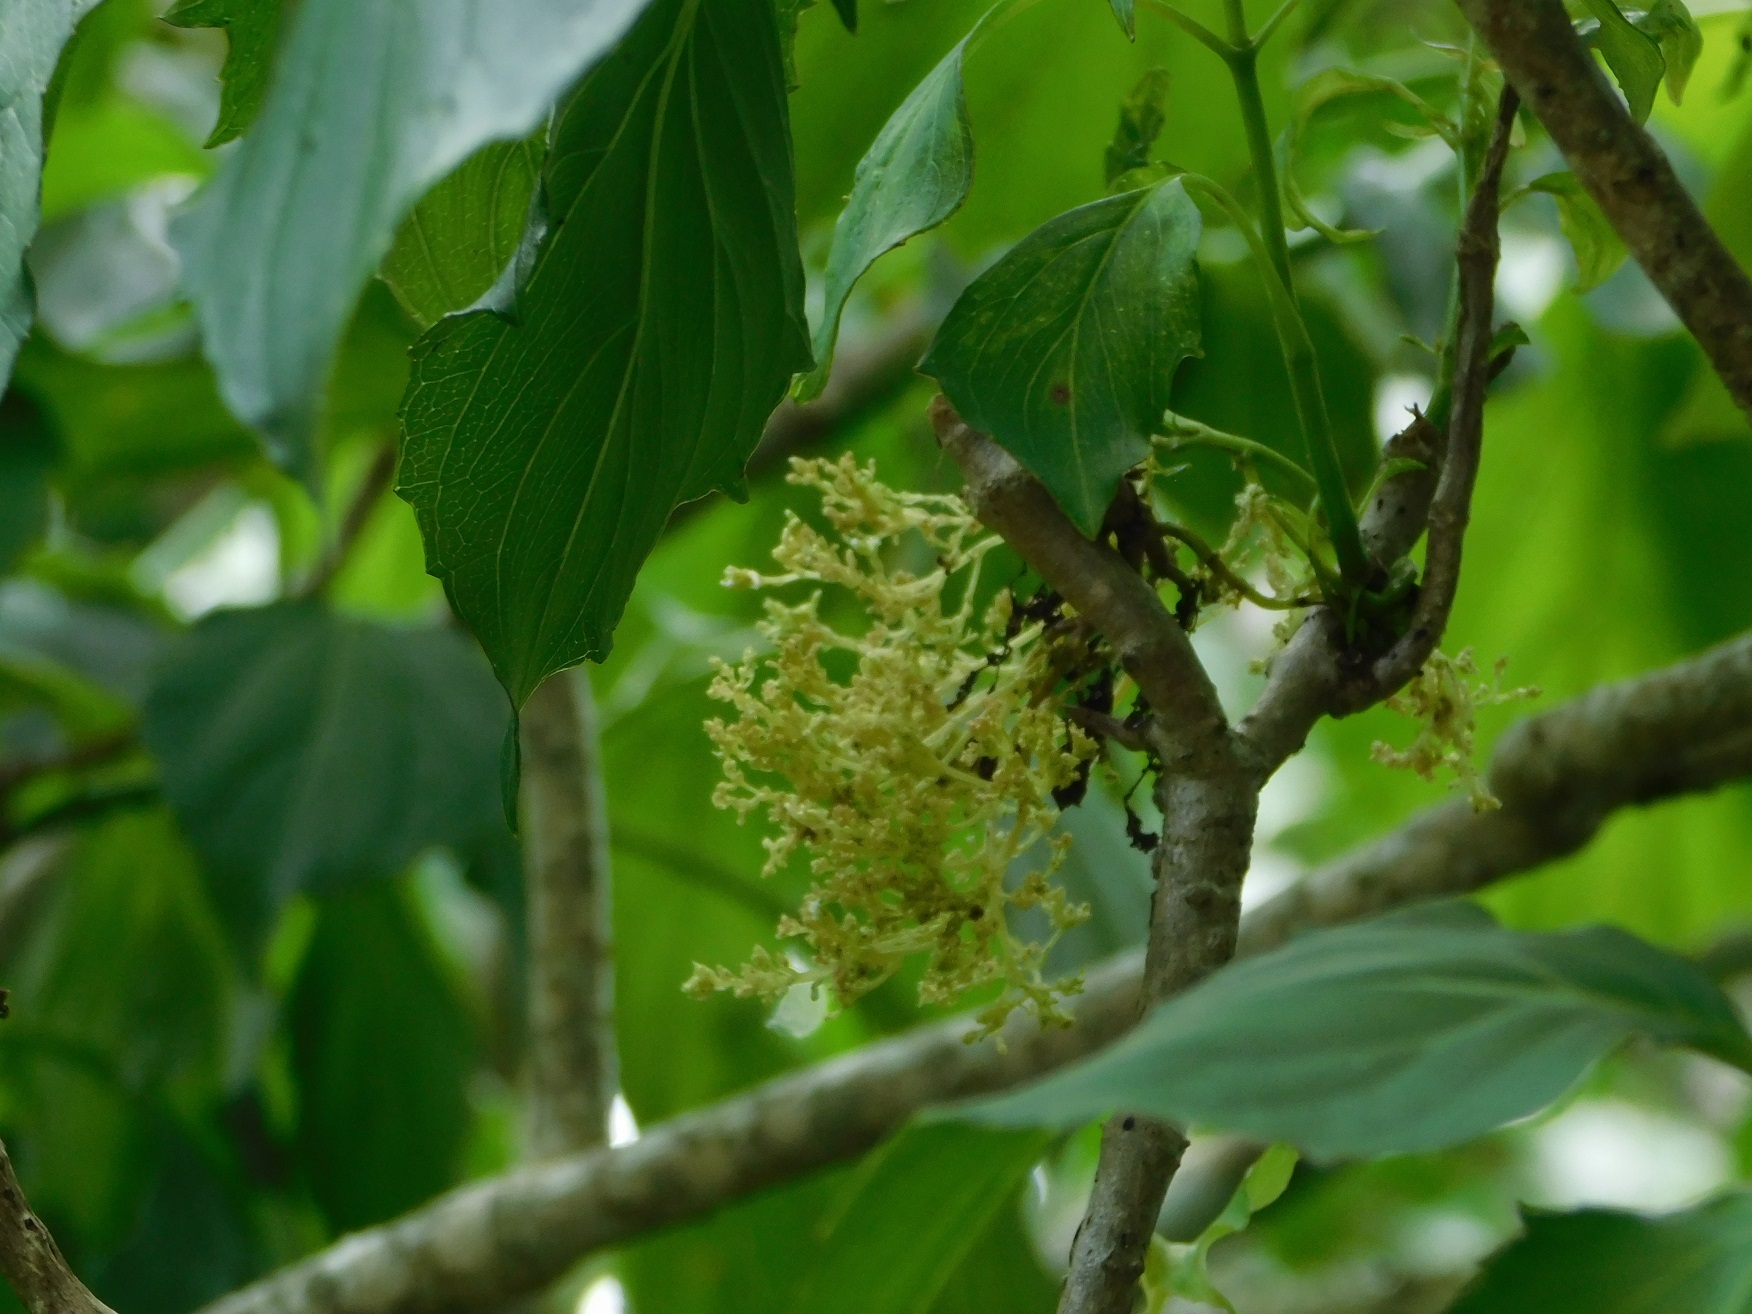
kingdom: Plantae
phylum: Tracheophyta
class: Magnoliopsida
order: Asterales
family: Asteraceae
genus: Pittocaulon
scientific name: Pittocaulon velatum
